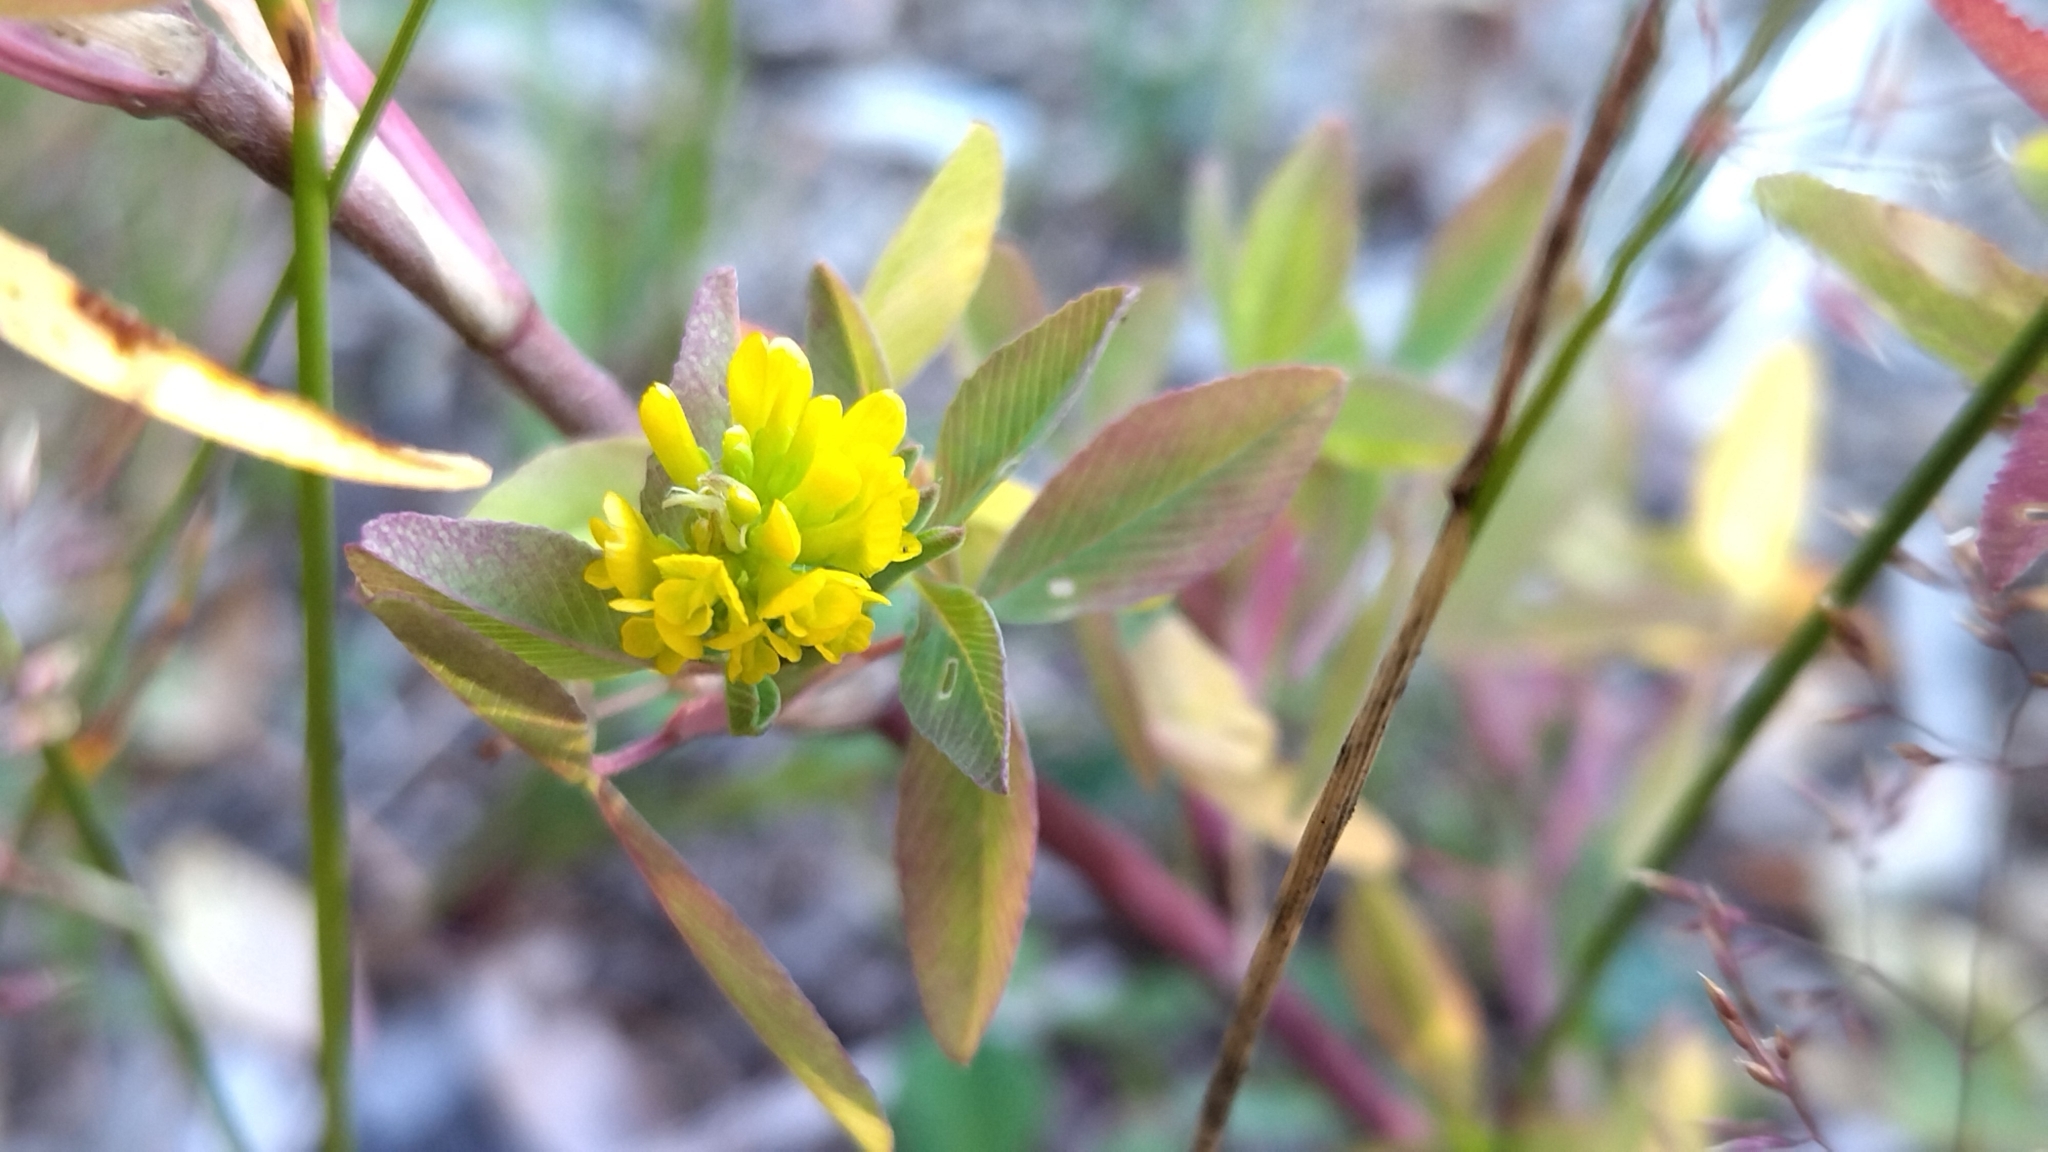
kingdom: Plantae
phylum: Tracheophyta
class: Magnoliopsida
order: Fabales
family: Fabaceae
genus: Trifolium
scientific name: Trifolium aureum
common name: Golden clover
